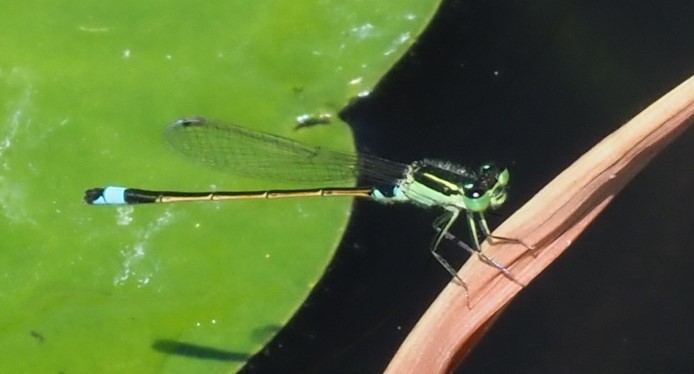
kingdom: Animalia
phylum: Arthropoda
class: Insecta
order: Odonata
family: Coenagrionidae
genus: Ischnura
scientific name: Ischnura senegalensis
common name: Tropical bluetail
